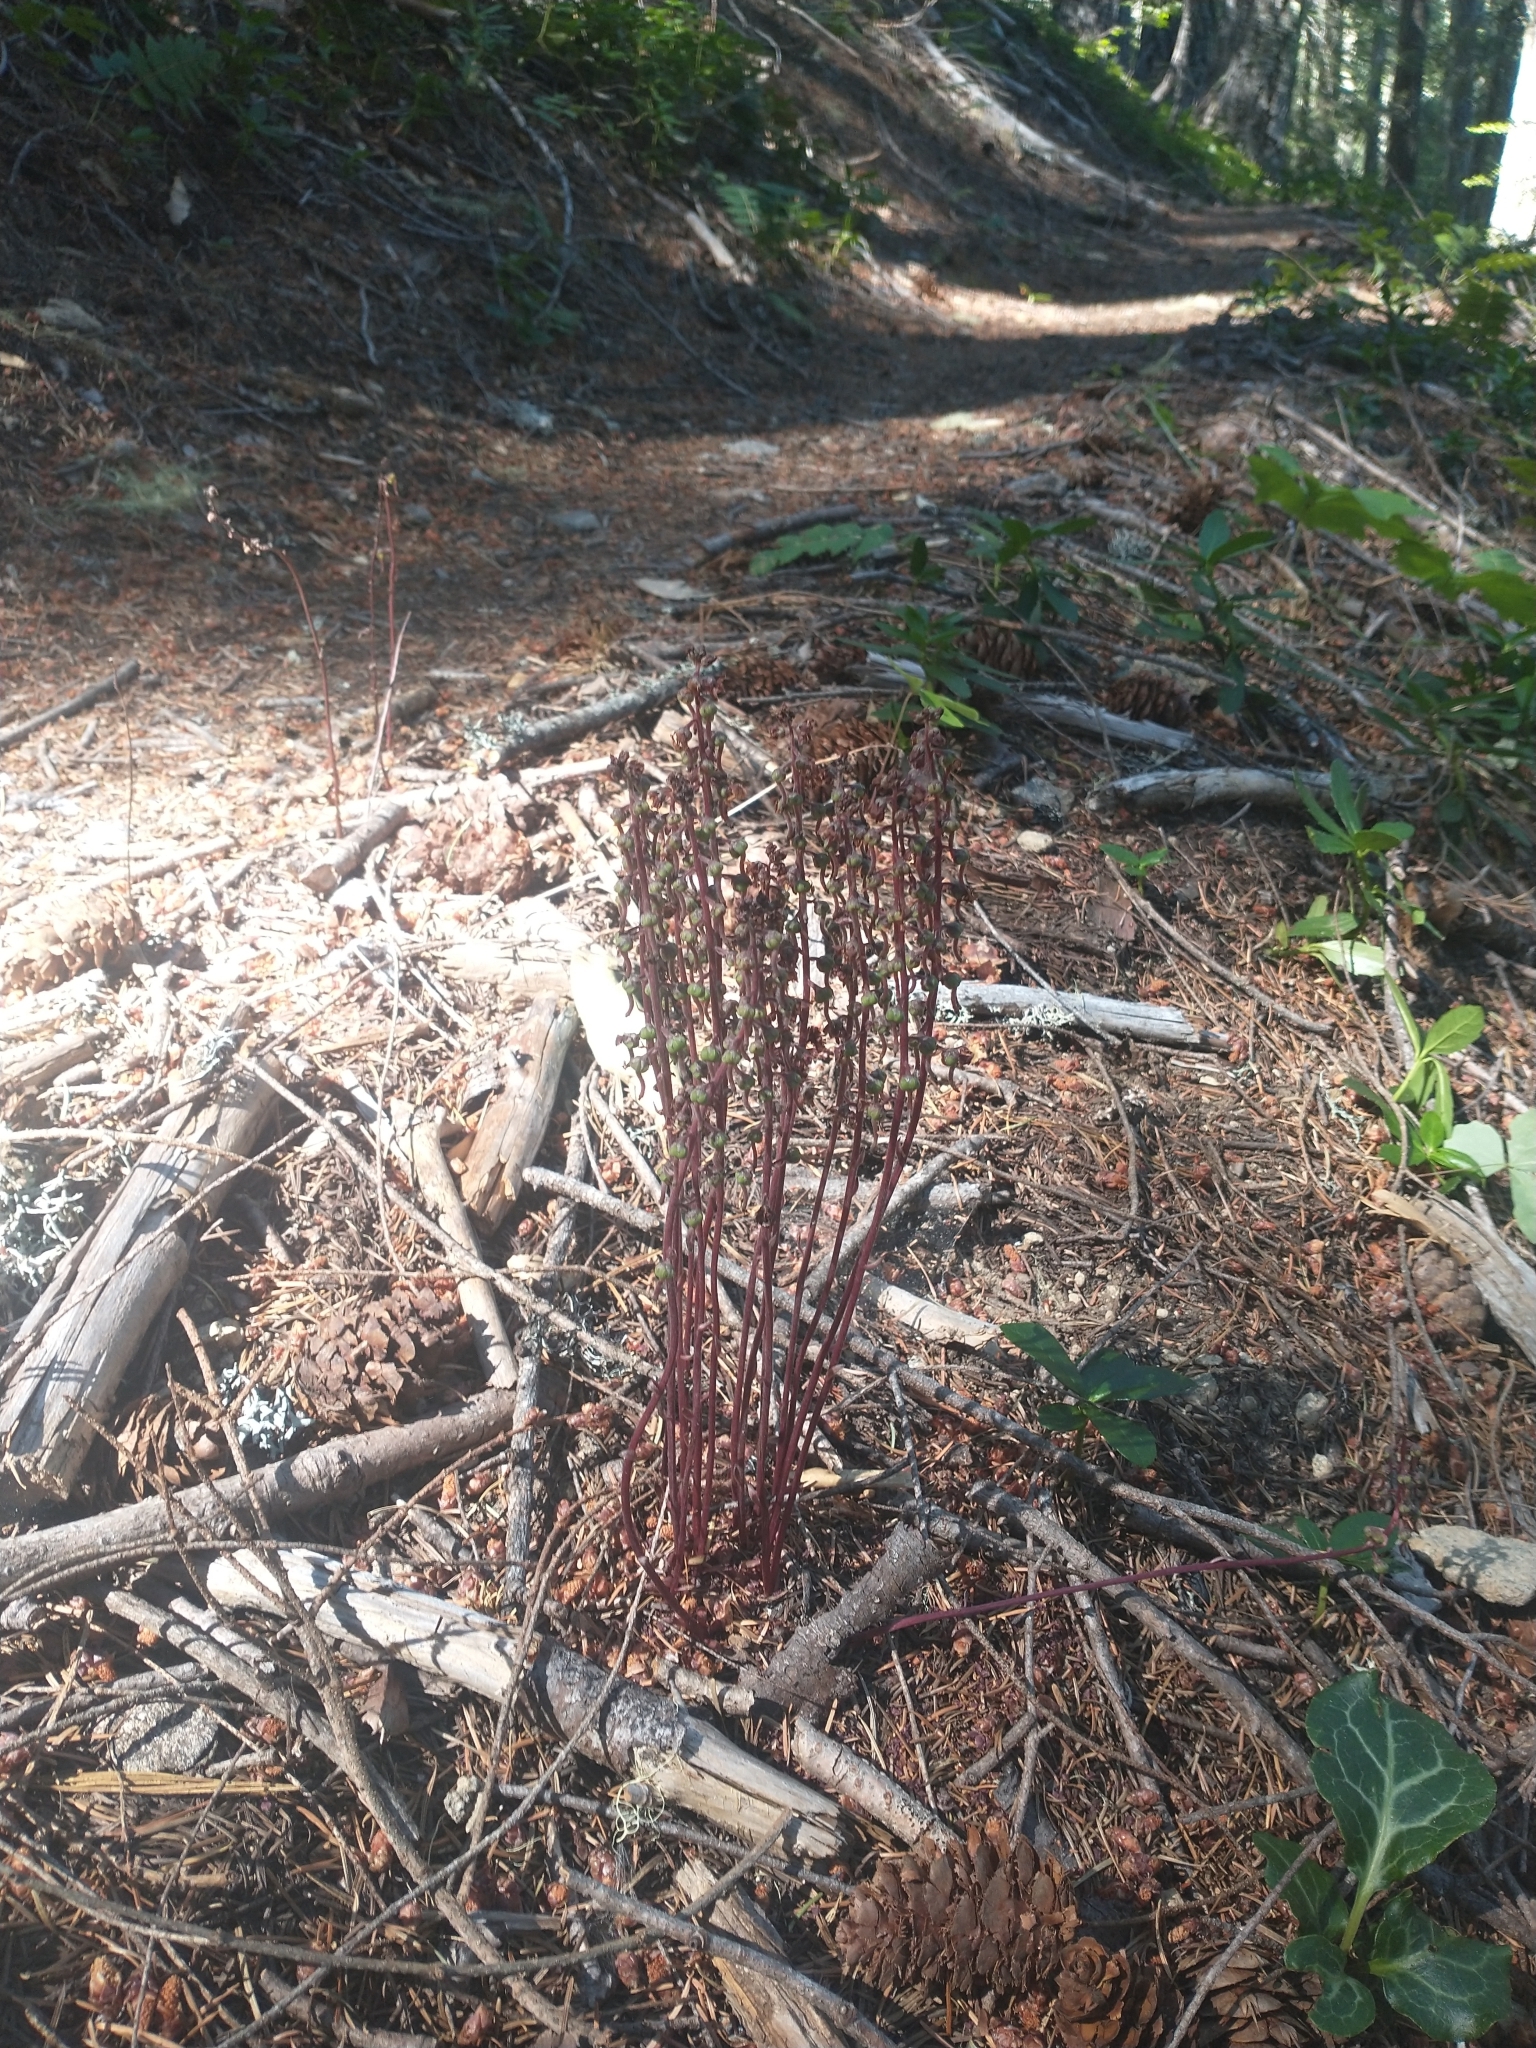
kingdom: Plantae
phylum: Tracheophyta
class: Magnoliopsida
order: Ericales
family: Ericaceae
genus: Pyrola
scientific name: Pyrola aphylla
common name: Leafless wintergreen
